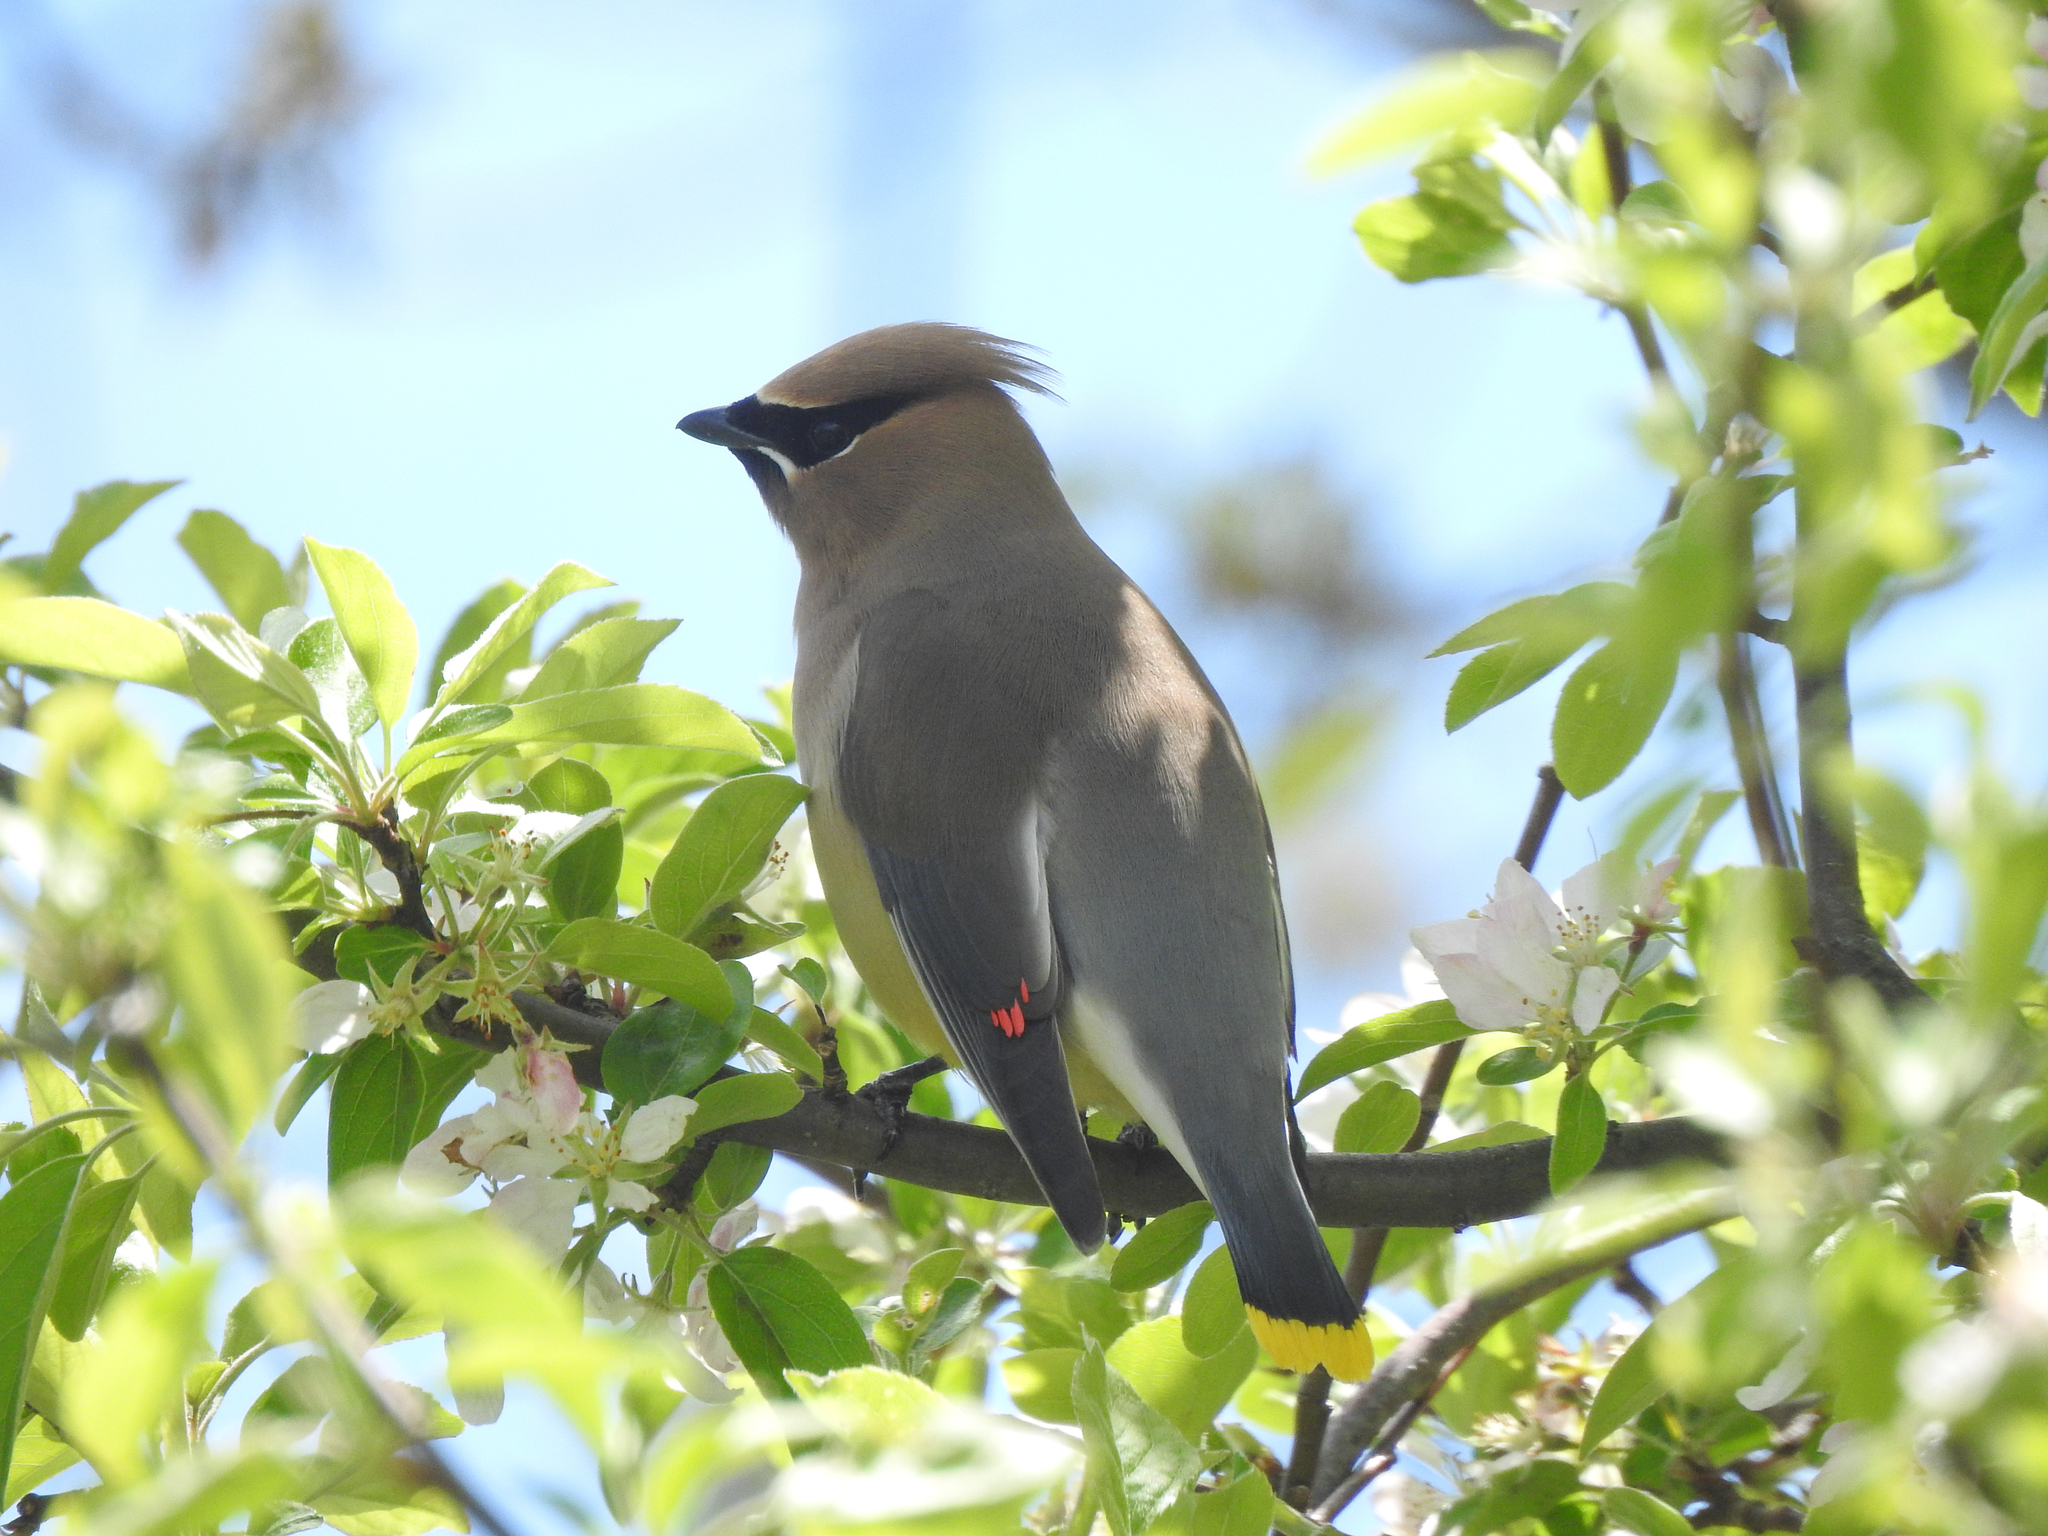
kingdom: Animalia
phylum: Chordata
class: Aves
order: Passeriformes
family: Bombycillidae
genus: Bombycilla
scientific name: Bombycilla cedrorum
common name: Cedar waxwing
